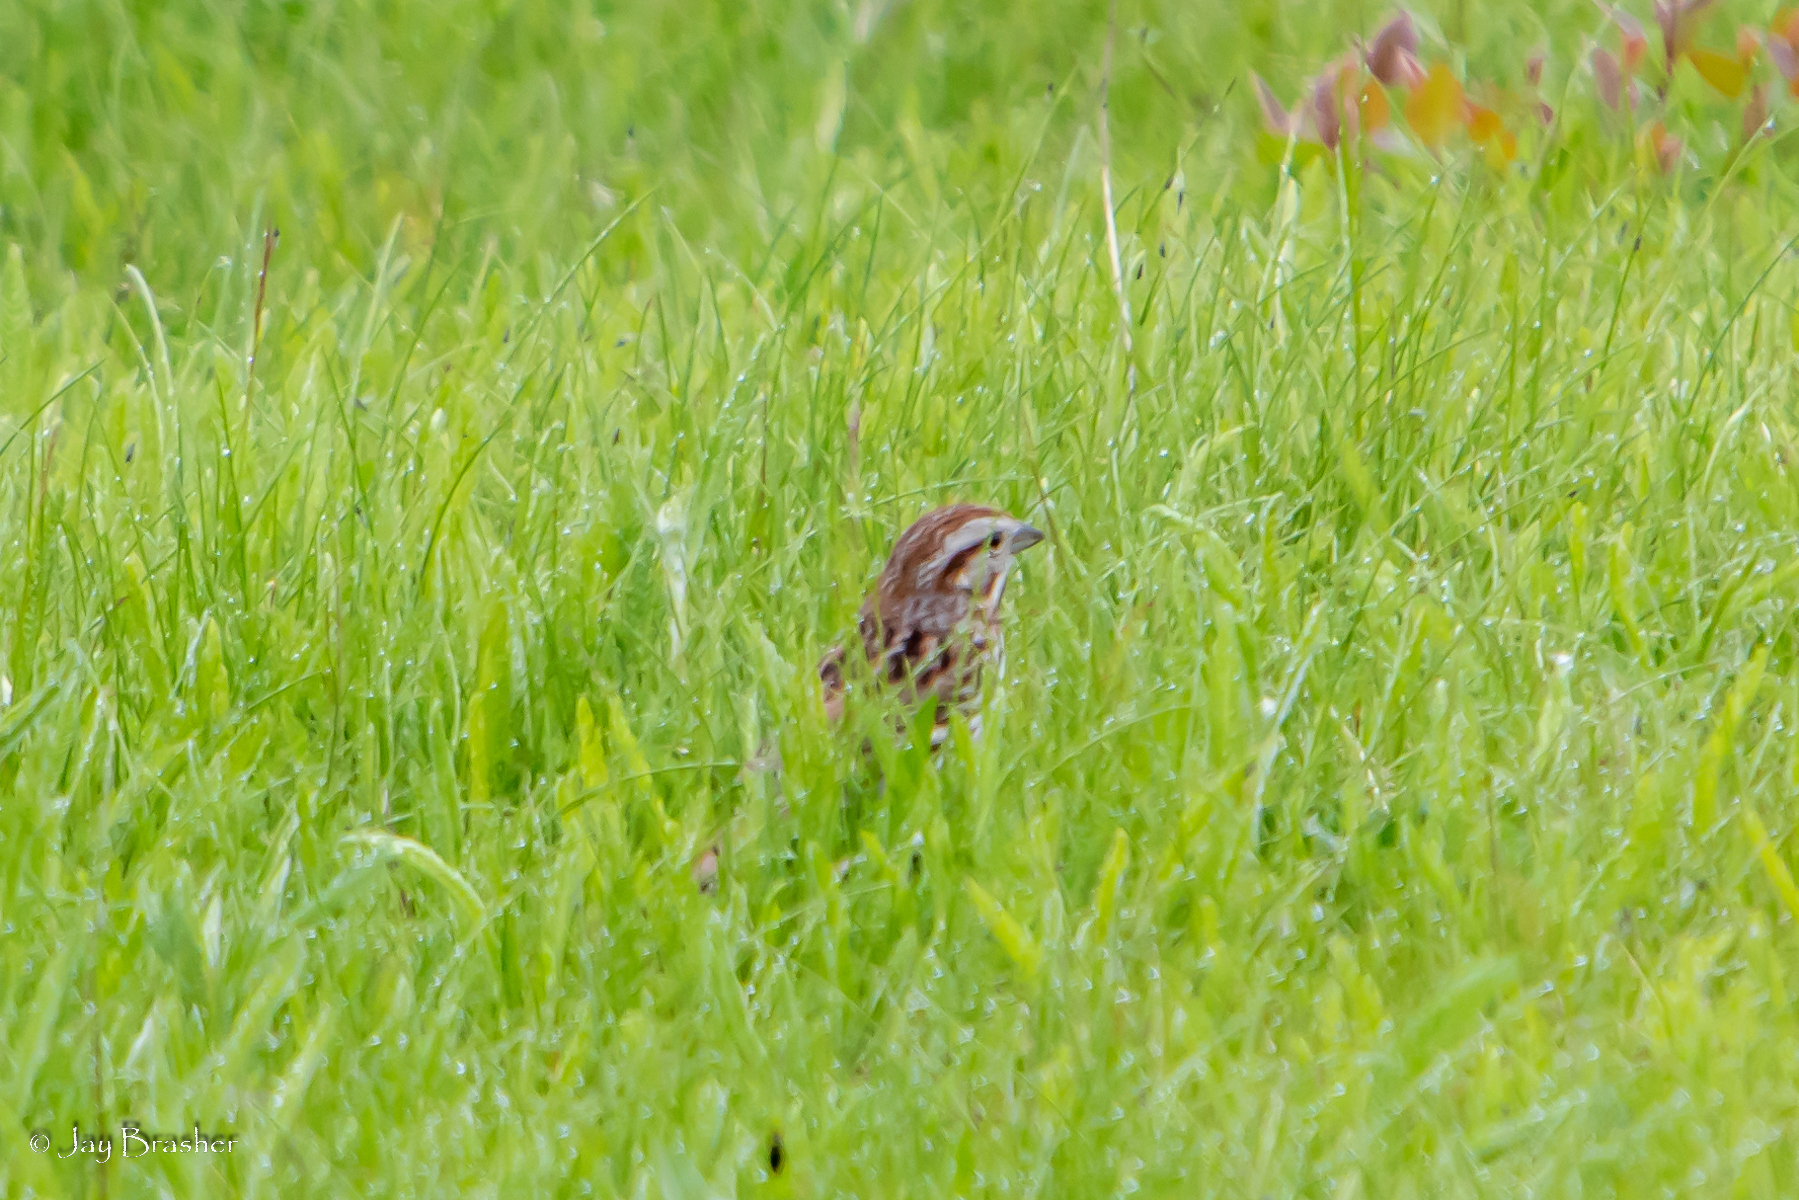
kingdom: Animalia
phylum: Chordata
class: Aves
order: Passeriformes
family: Passerellidae
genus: Melospiza
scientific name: Melospiza melodia
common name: Song sparrow
